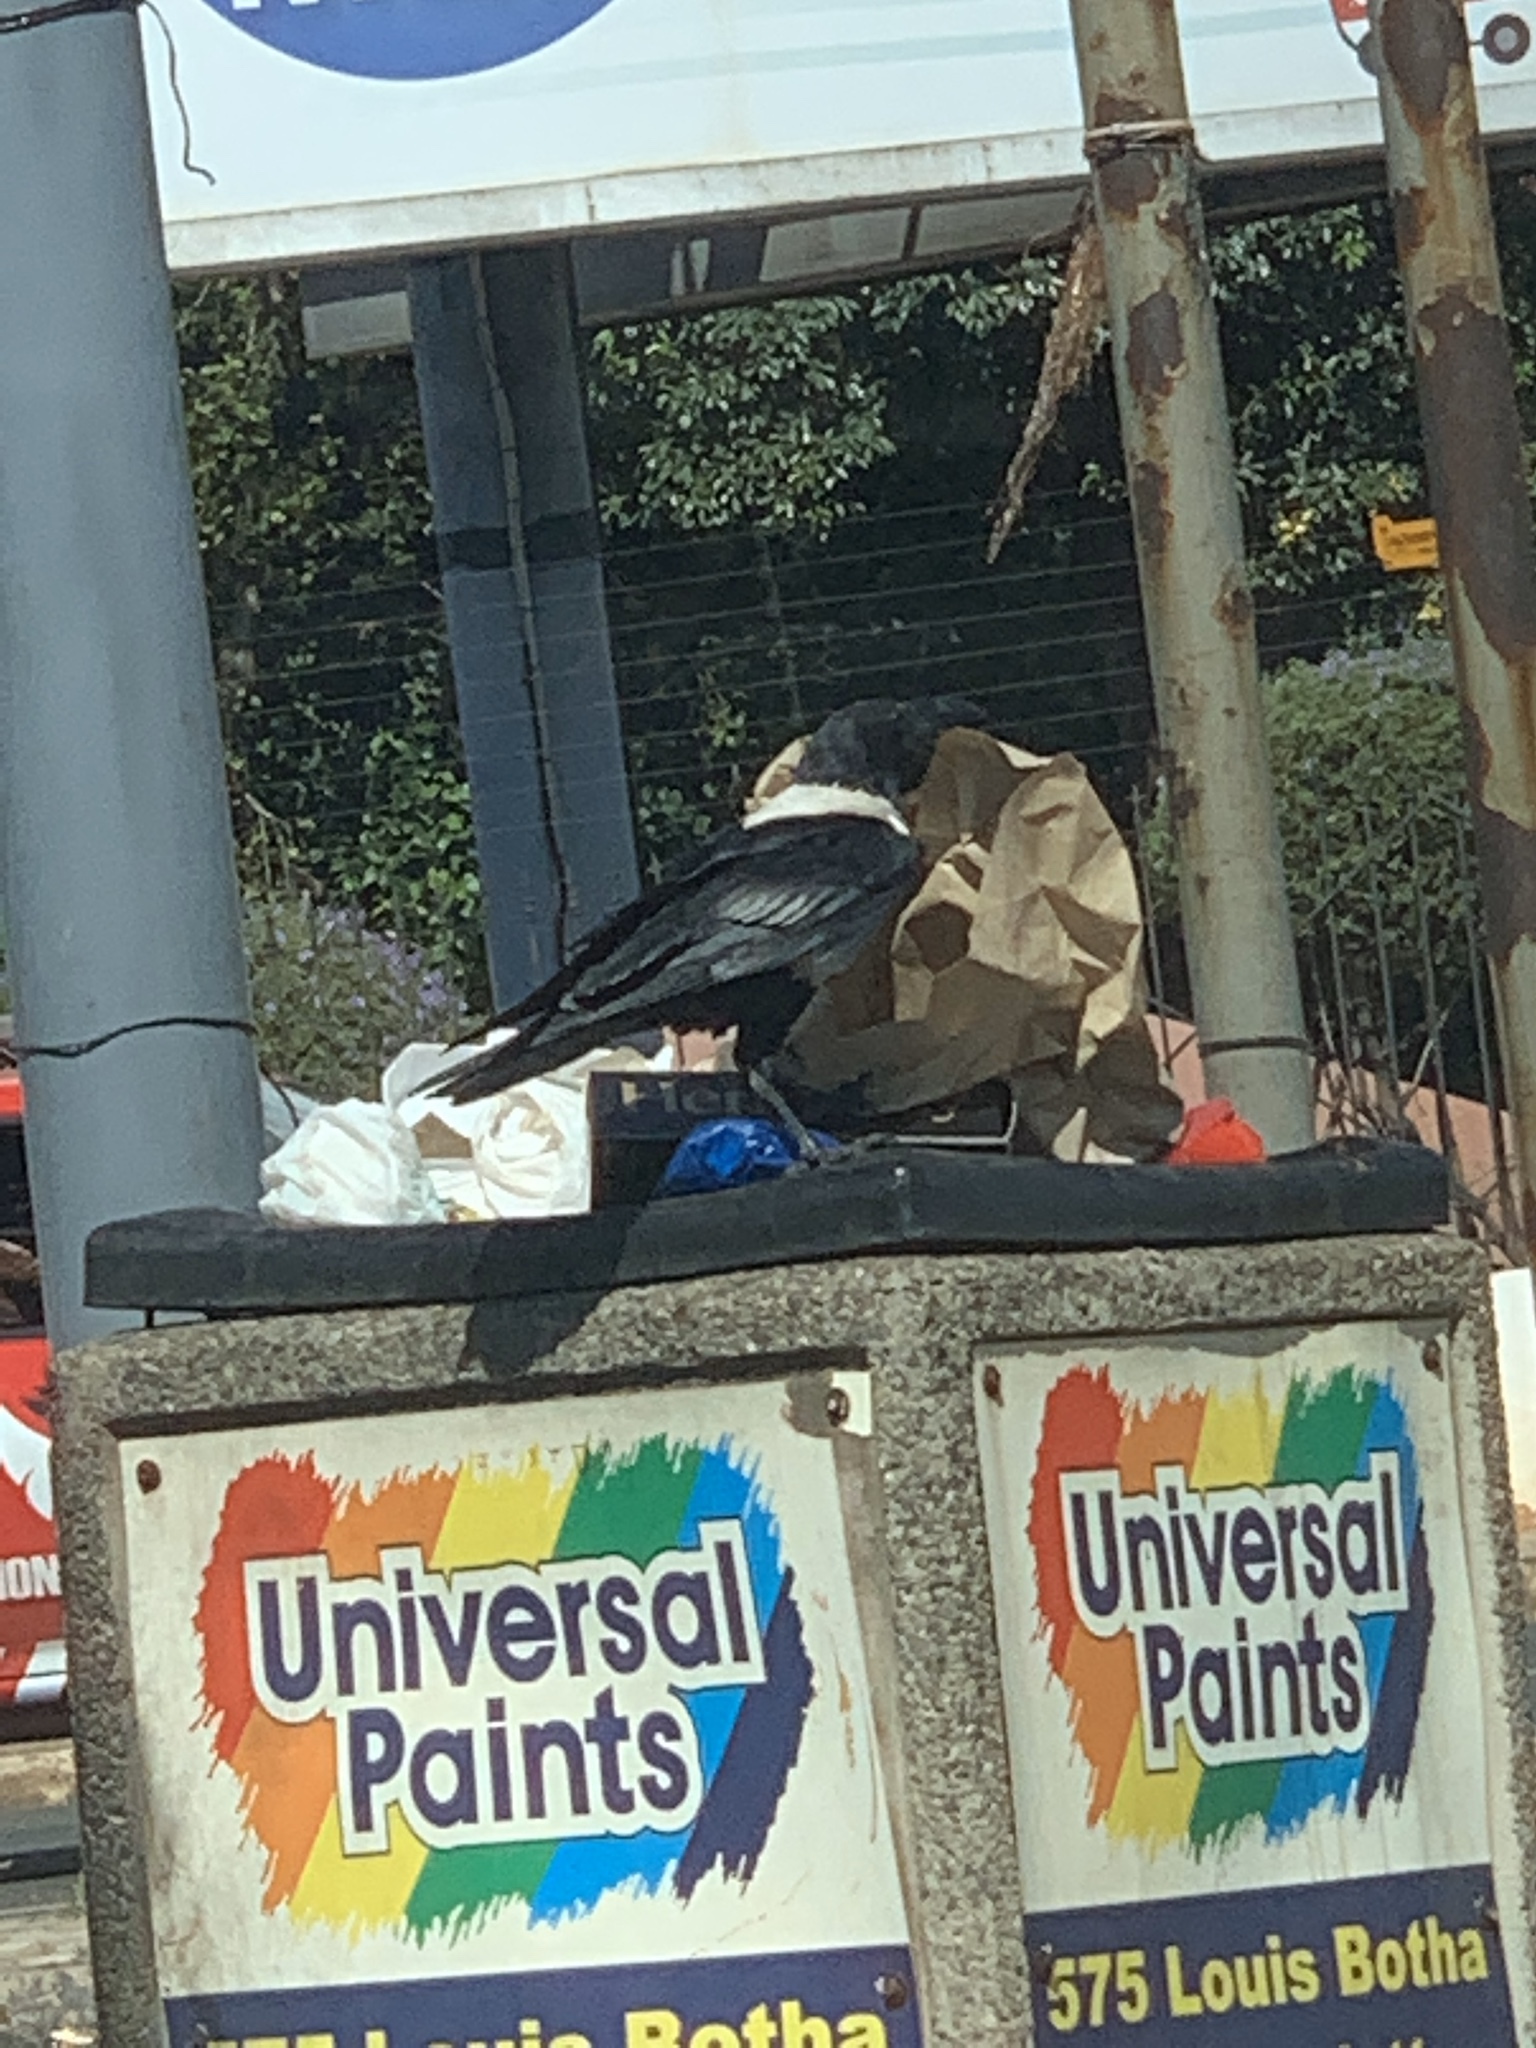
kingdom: Animalia
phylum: Chordata
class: Aves
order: Passeriformes
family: Corvidae
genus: Corvus
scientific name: Corvus albus
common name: Pied crow
